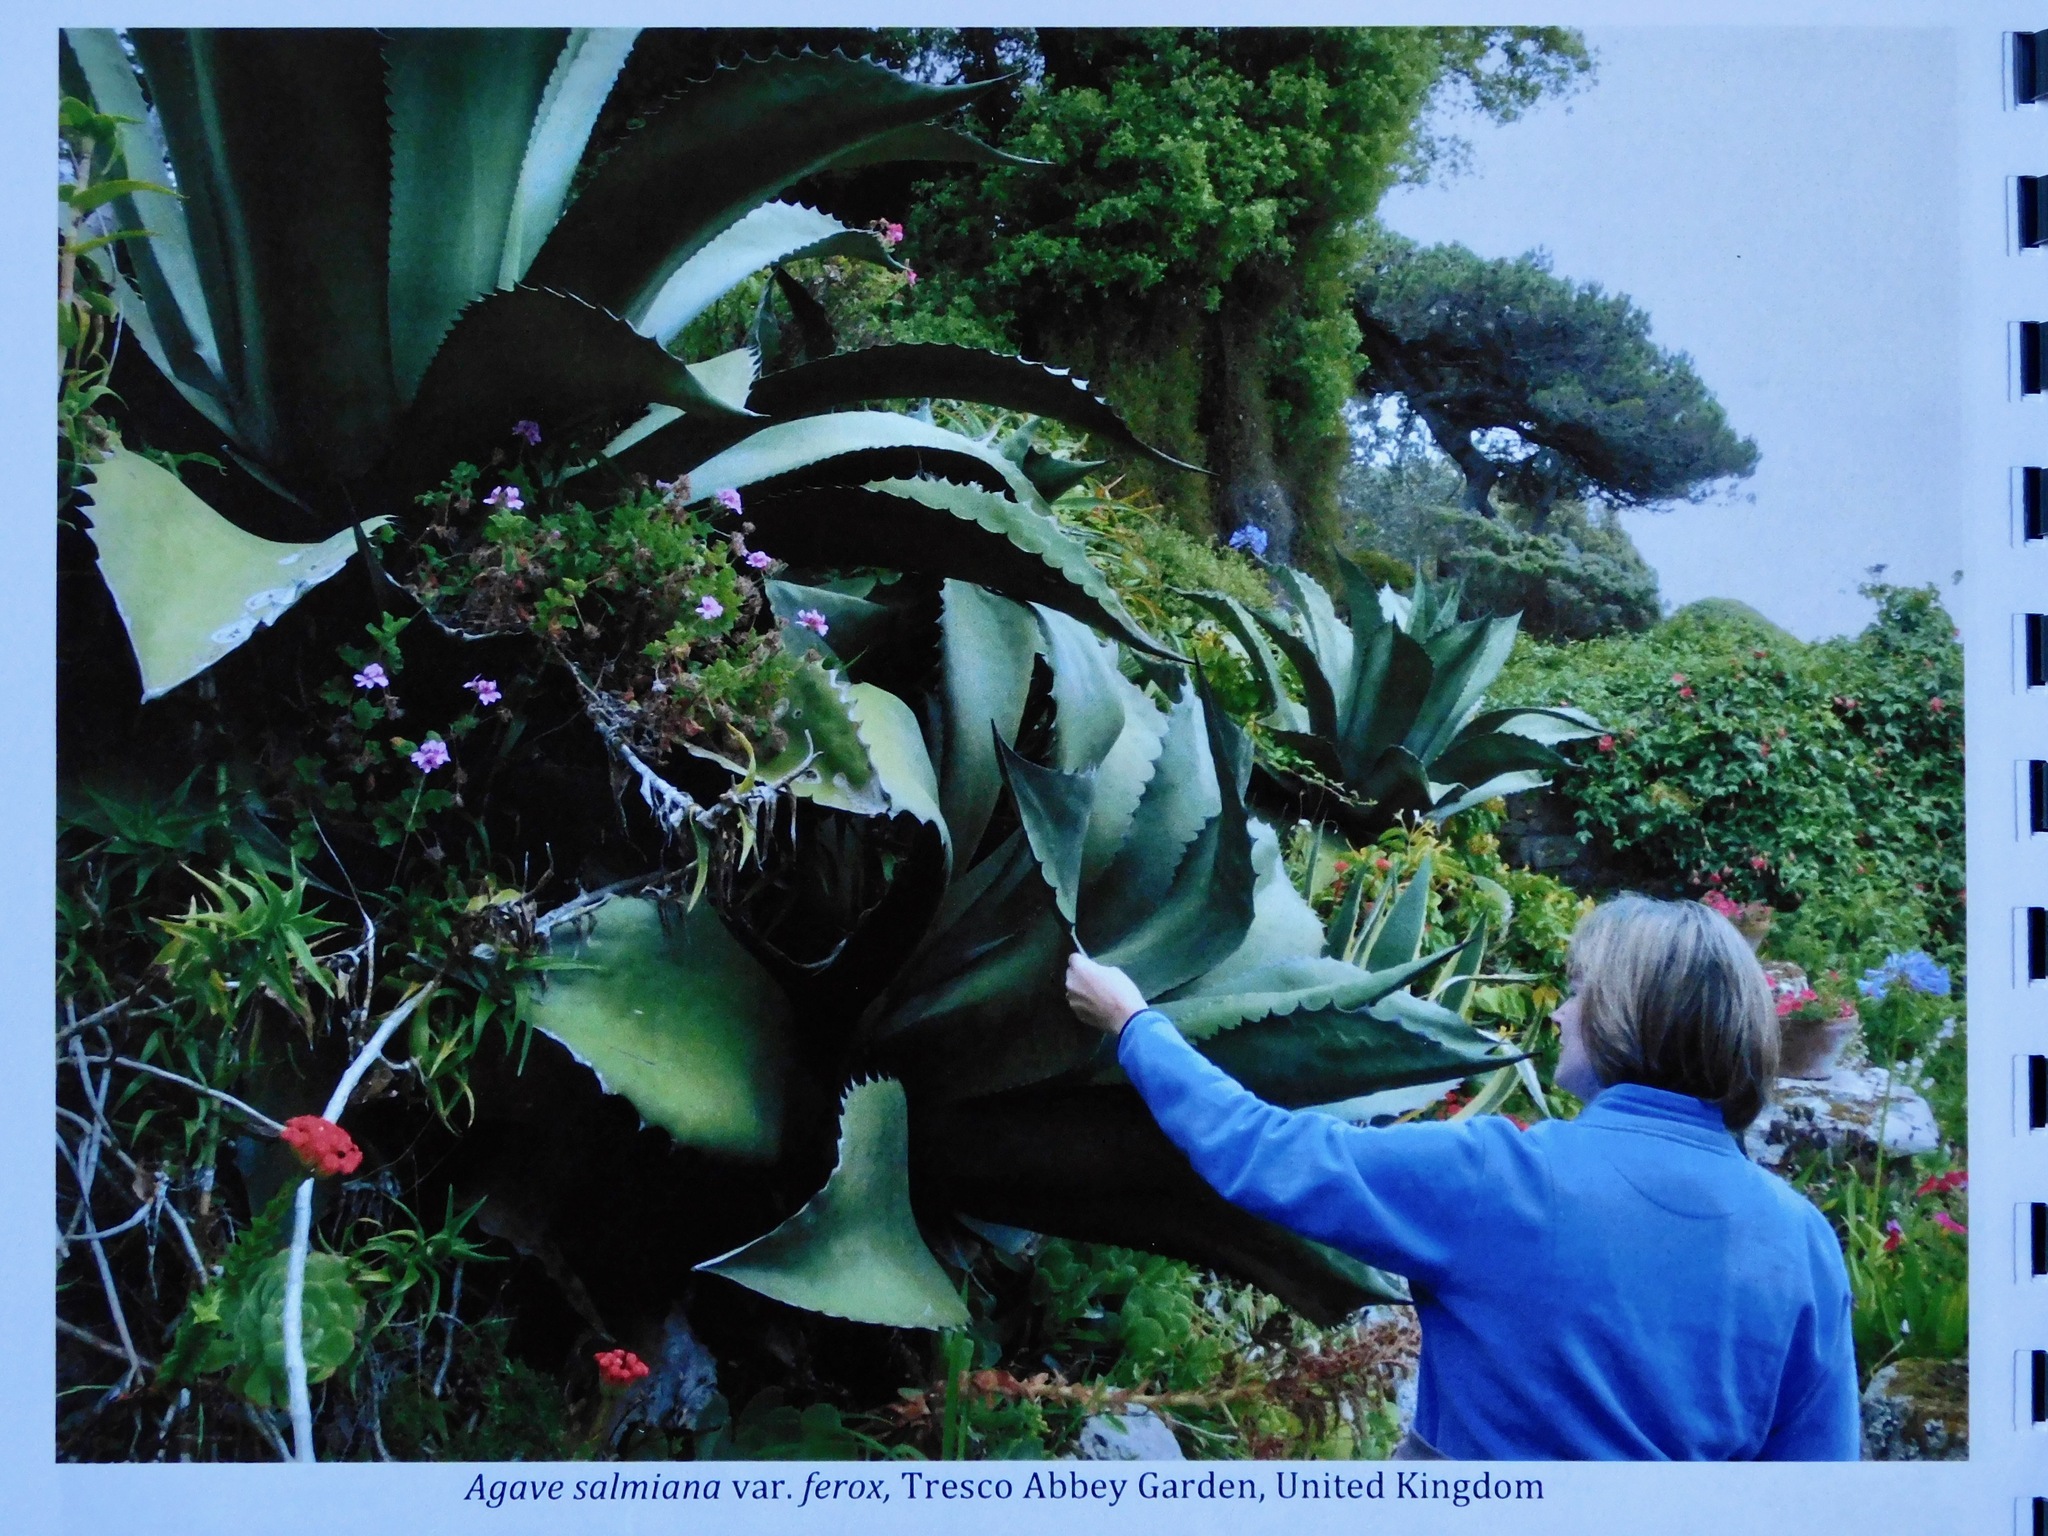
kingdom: Plantae
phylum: Tracheophyta
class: Liliopsida
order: Asparagales
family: Asparagaceae
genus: Agave
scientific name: Agave salmiana
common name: Pulque agave
